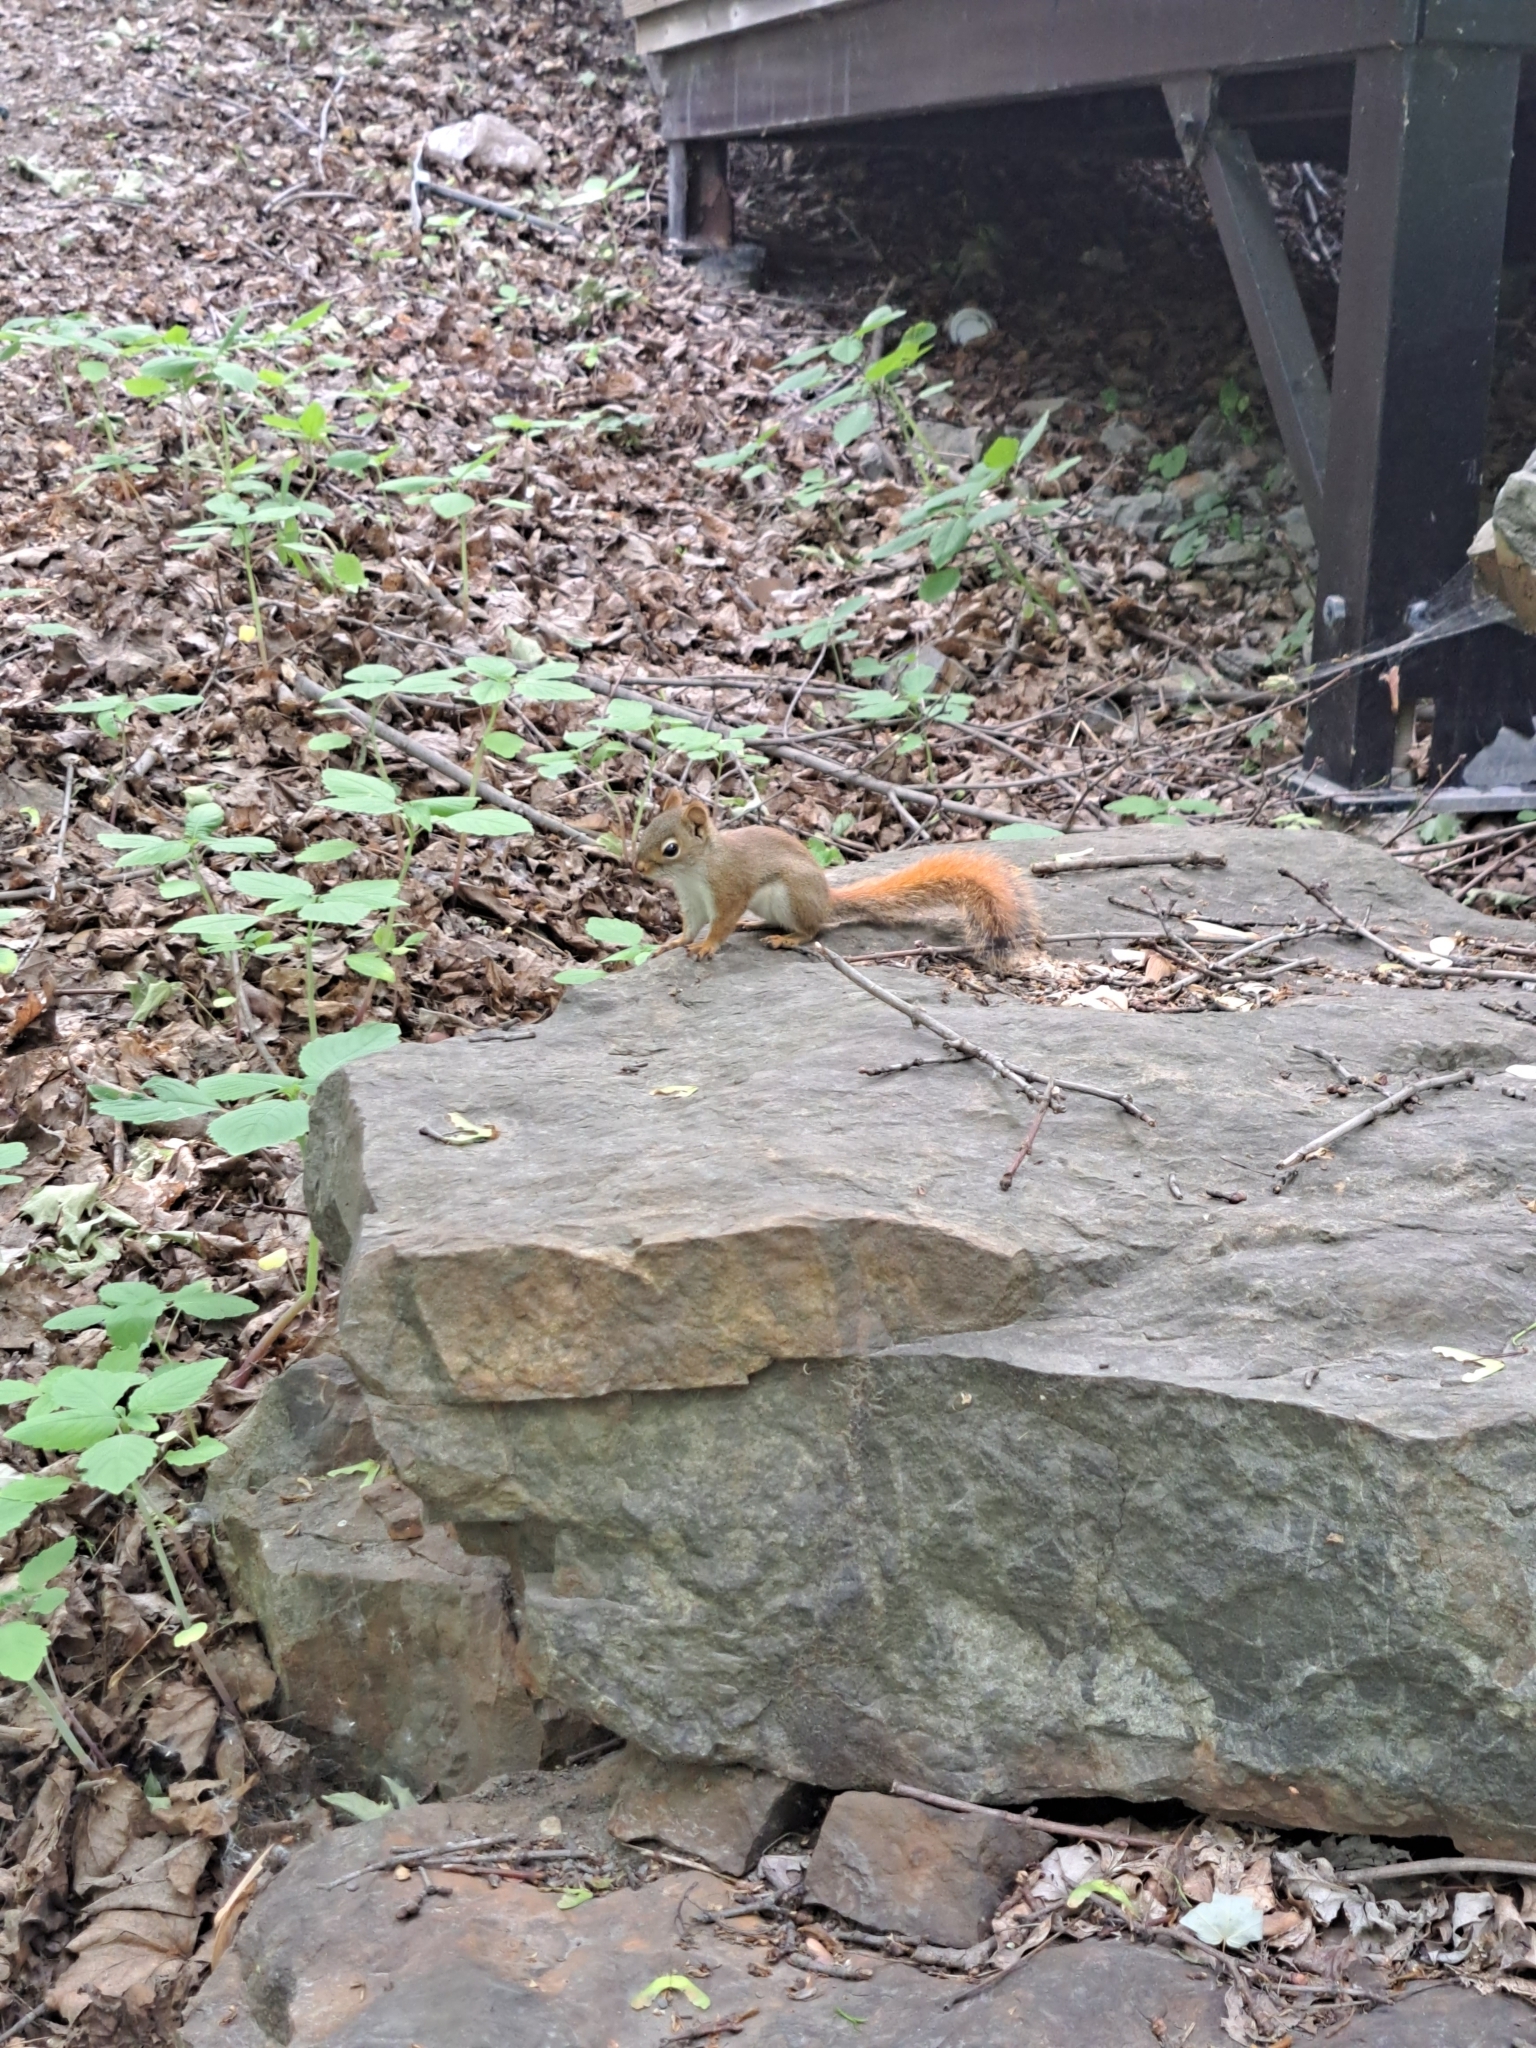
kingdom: Animalia
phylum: Chordata
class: Mammalia
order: Rodentia
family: Sciuridae
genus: Tamiasciurus
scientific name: Tamiasciurus hudsonicus
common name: Red squirrel
